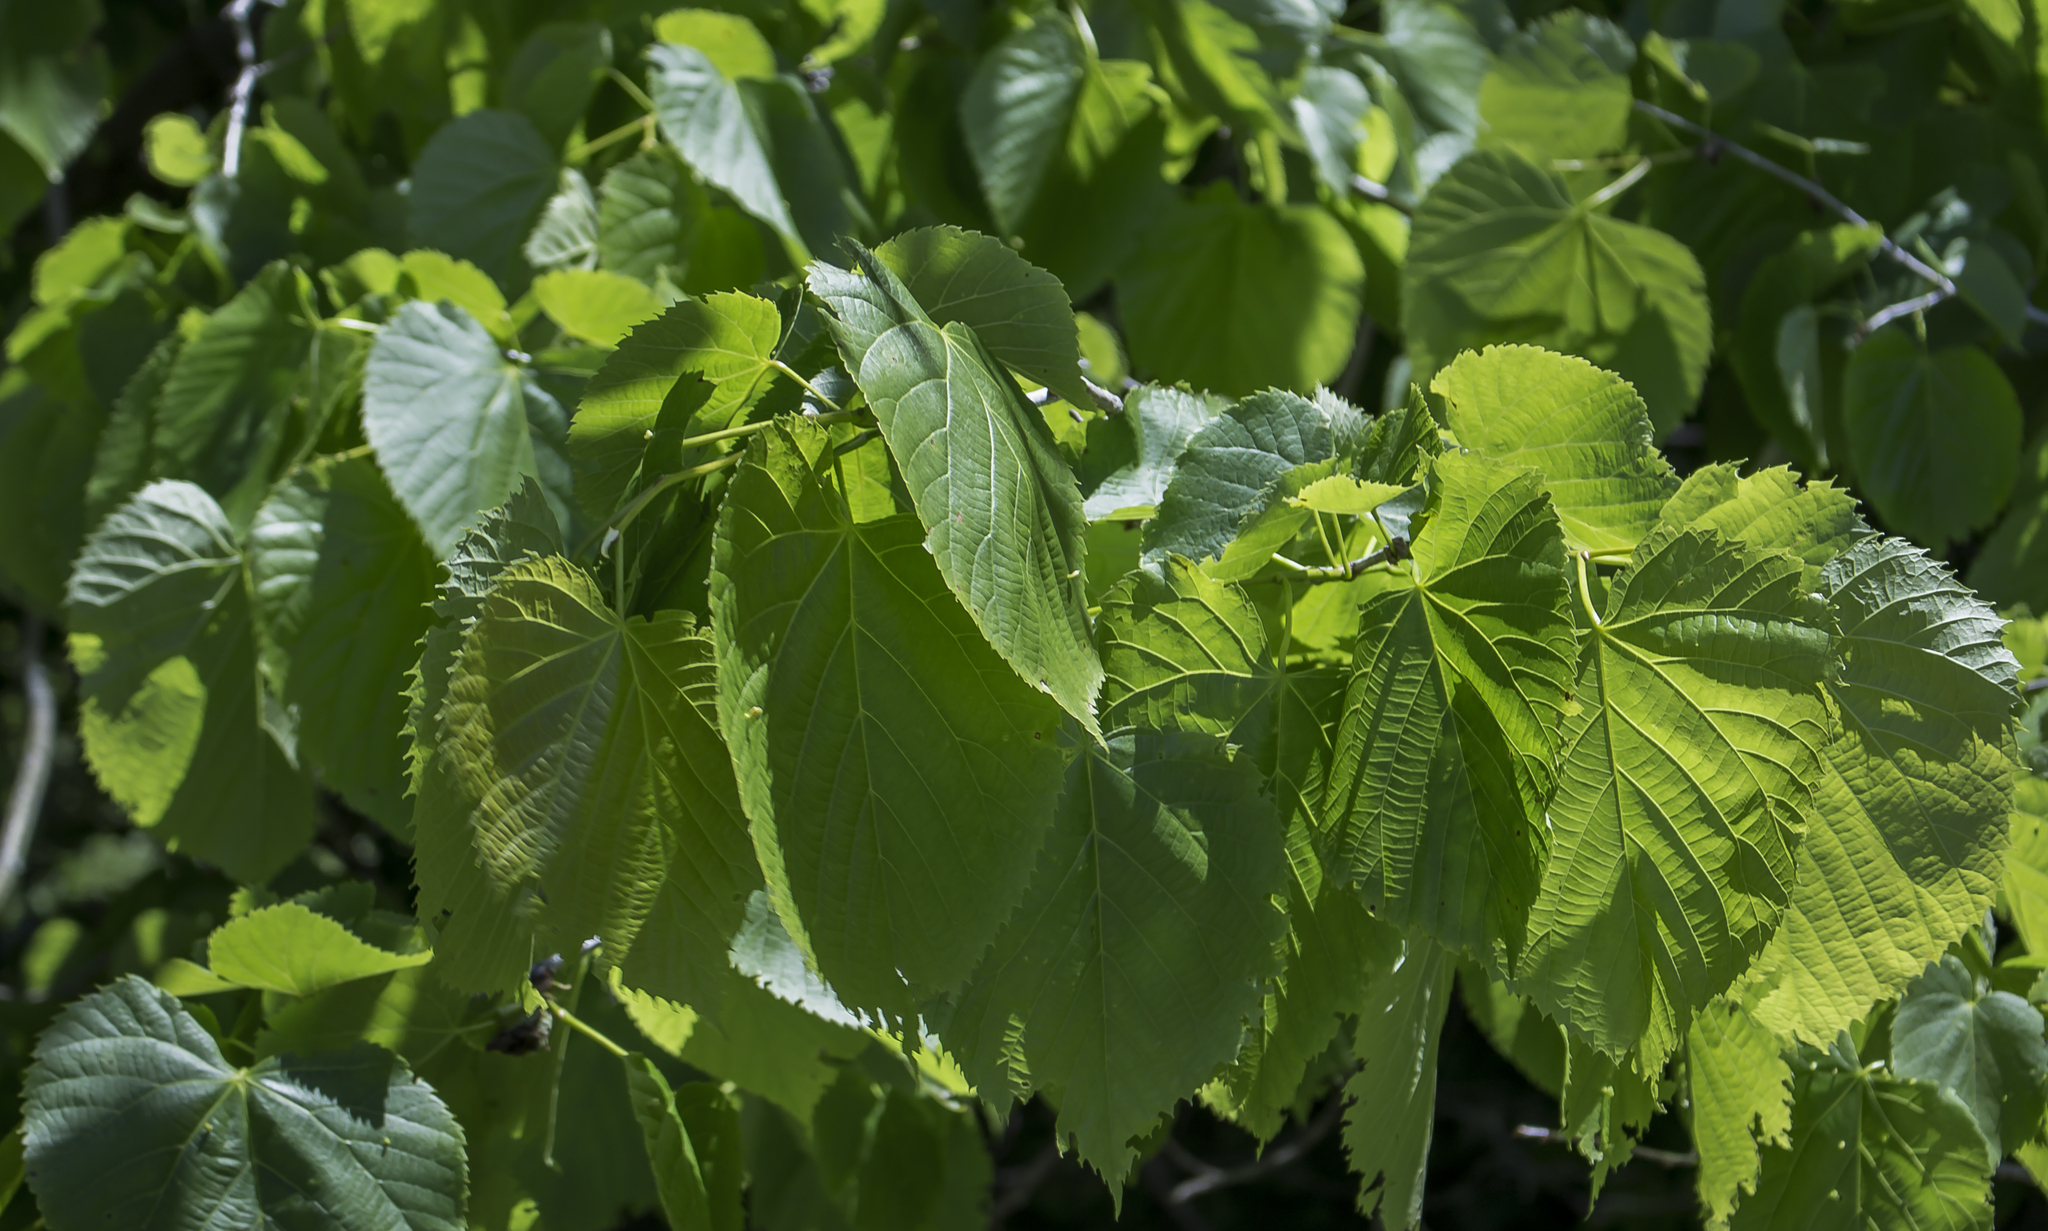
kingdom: Plantae
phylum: Tracheophyta
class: Magnoliopsida
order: Malvales
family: Malvaceae
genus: Tilia
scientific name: Tilia americana
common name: Basswood
